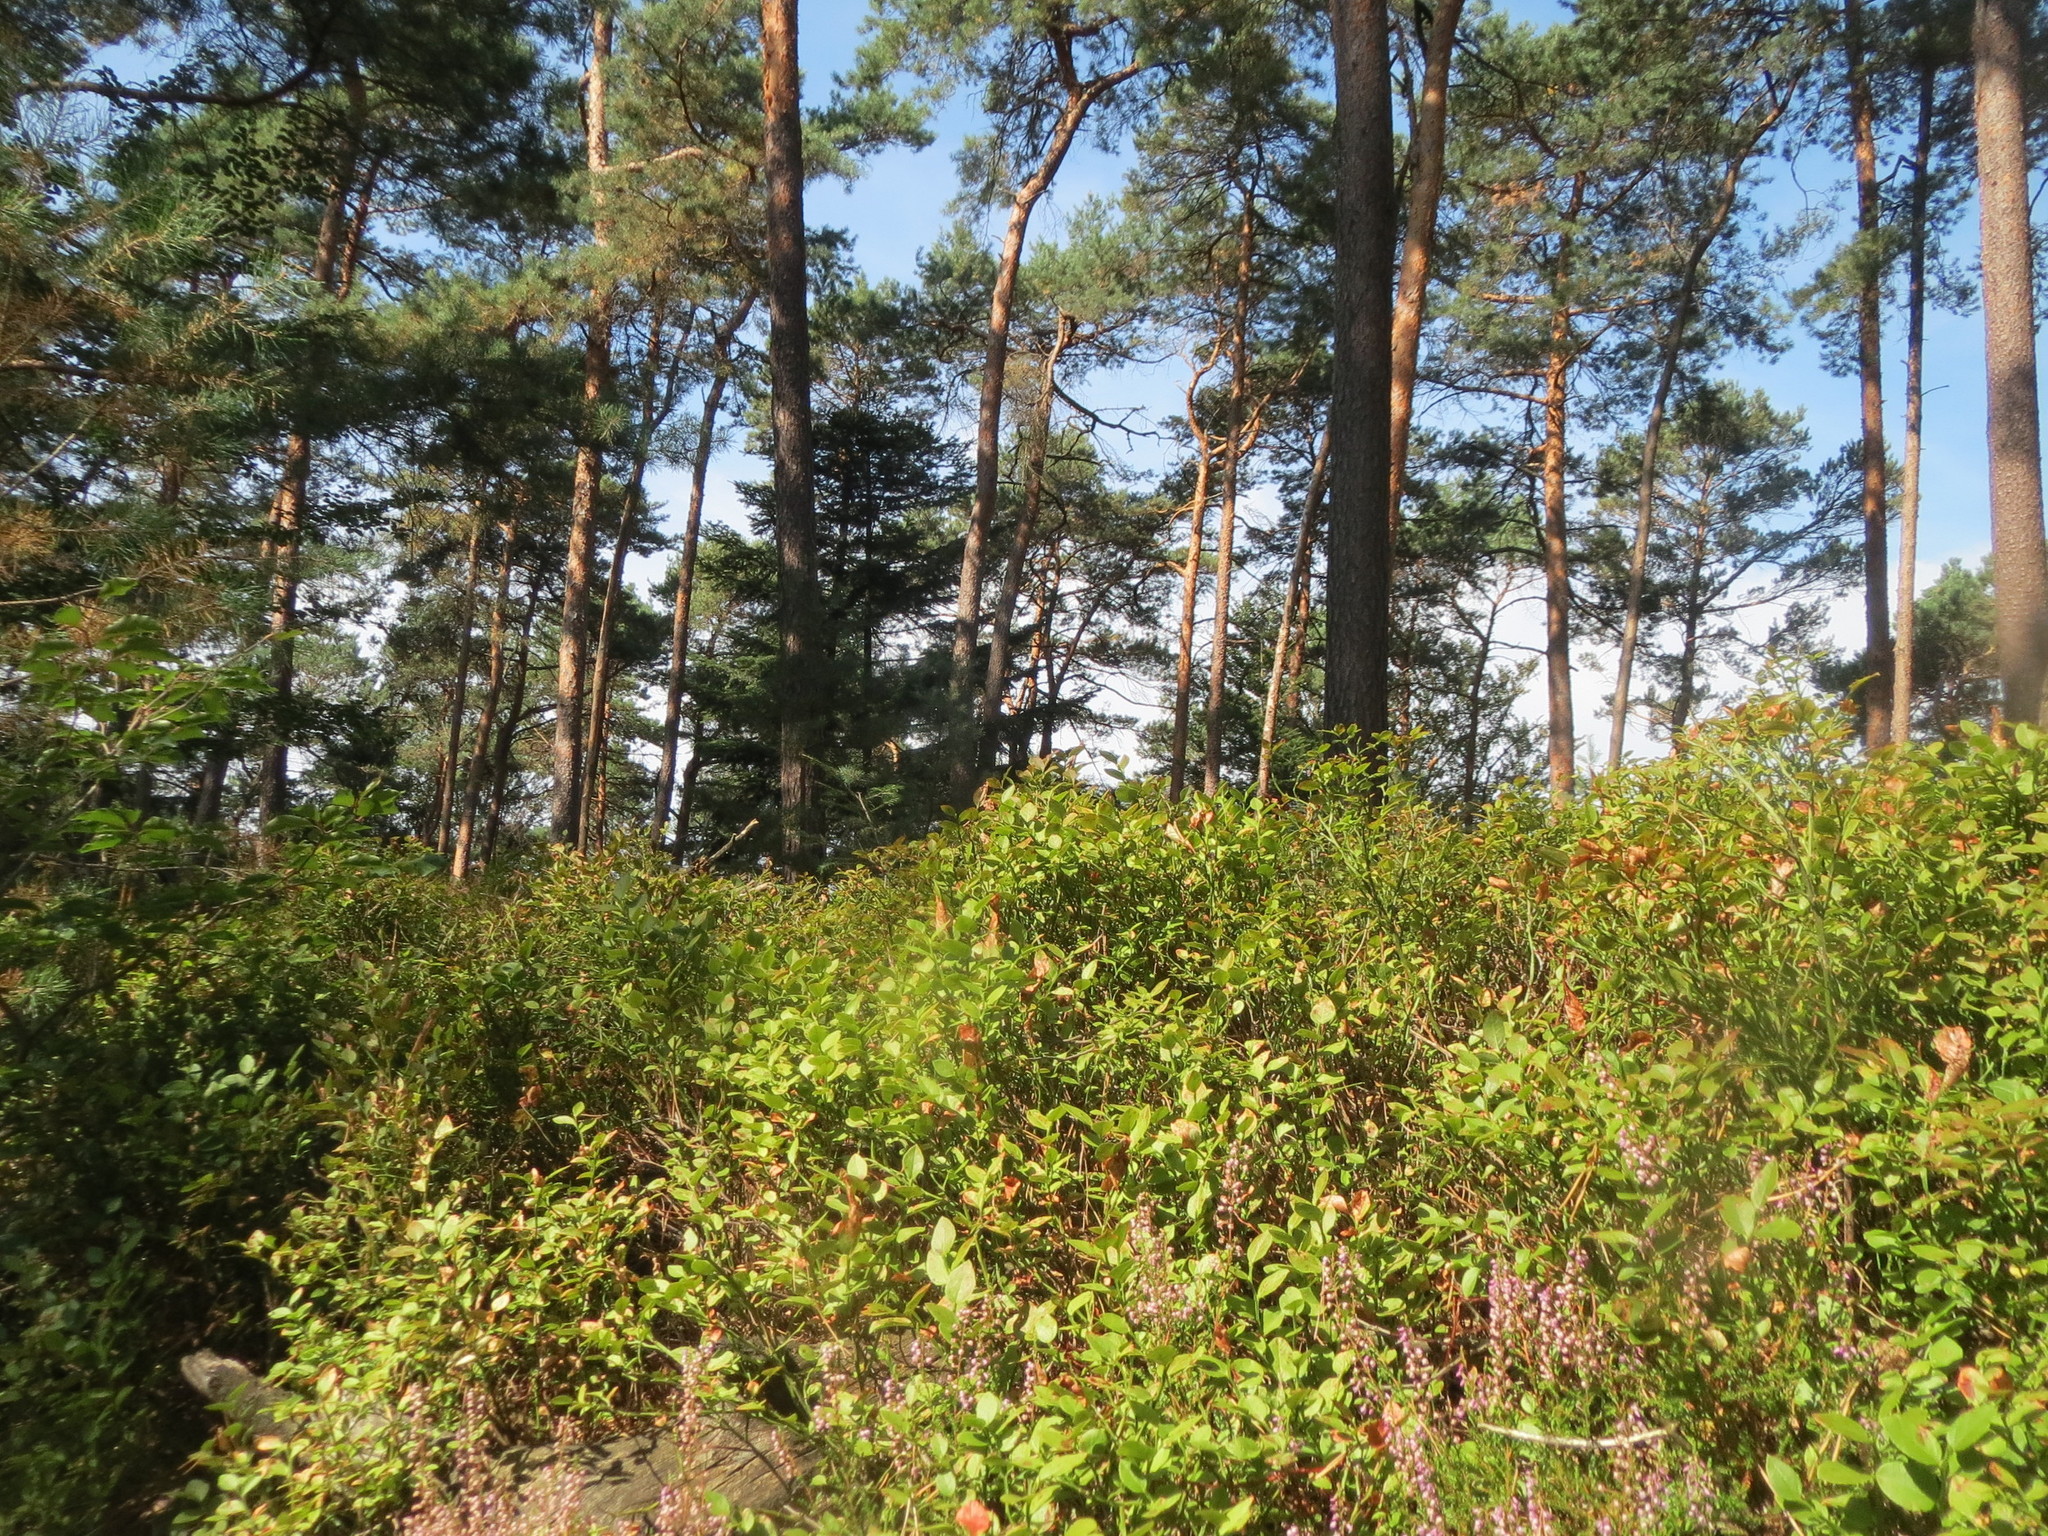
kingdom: Plantae
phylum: Tracheophyta
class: Magnoliopsida
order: Ericales
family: Ericaceae
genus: Vaccinium
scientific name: Vaccinium myrtillus
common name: Bilberry
